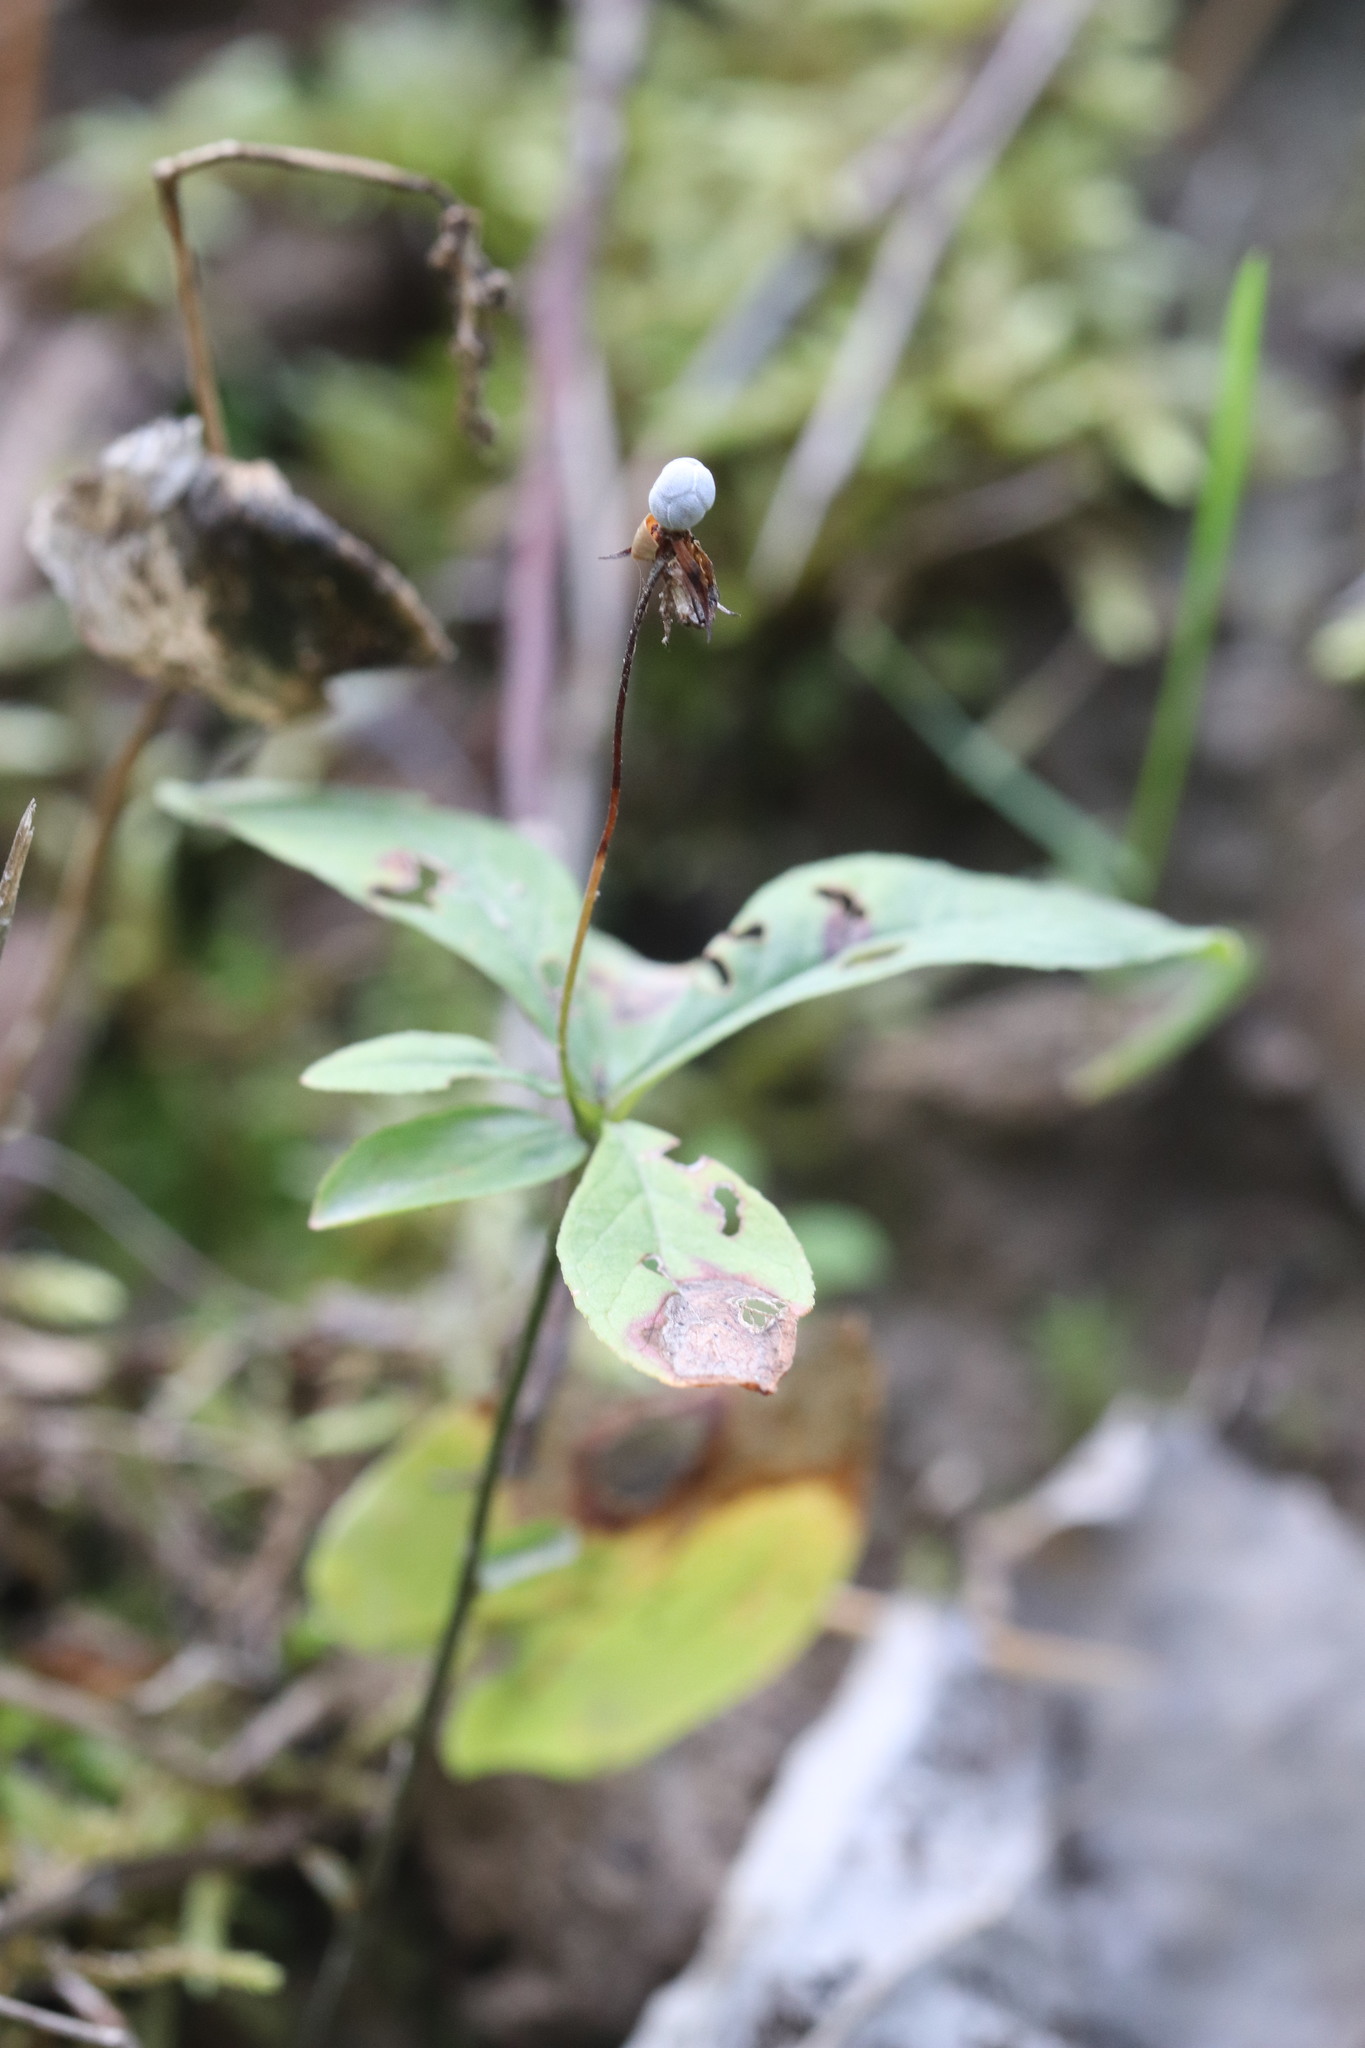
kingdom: Plantae
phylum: Tracheophyta
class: Magnoliopsida
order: Ericales
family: Primulaceae
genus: Lysimachia
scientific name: Lysimachia europaea
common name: Arctic starflower
